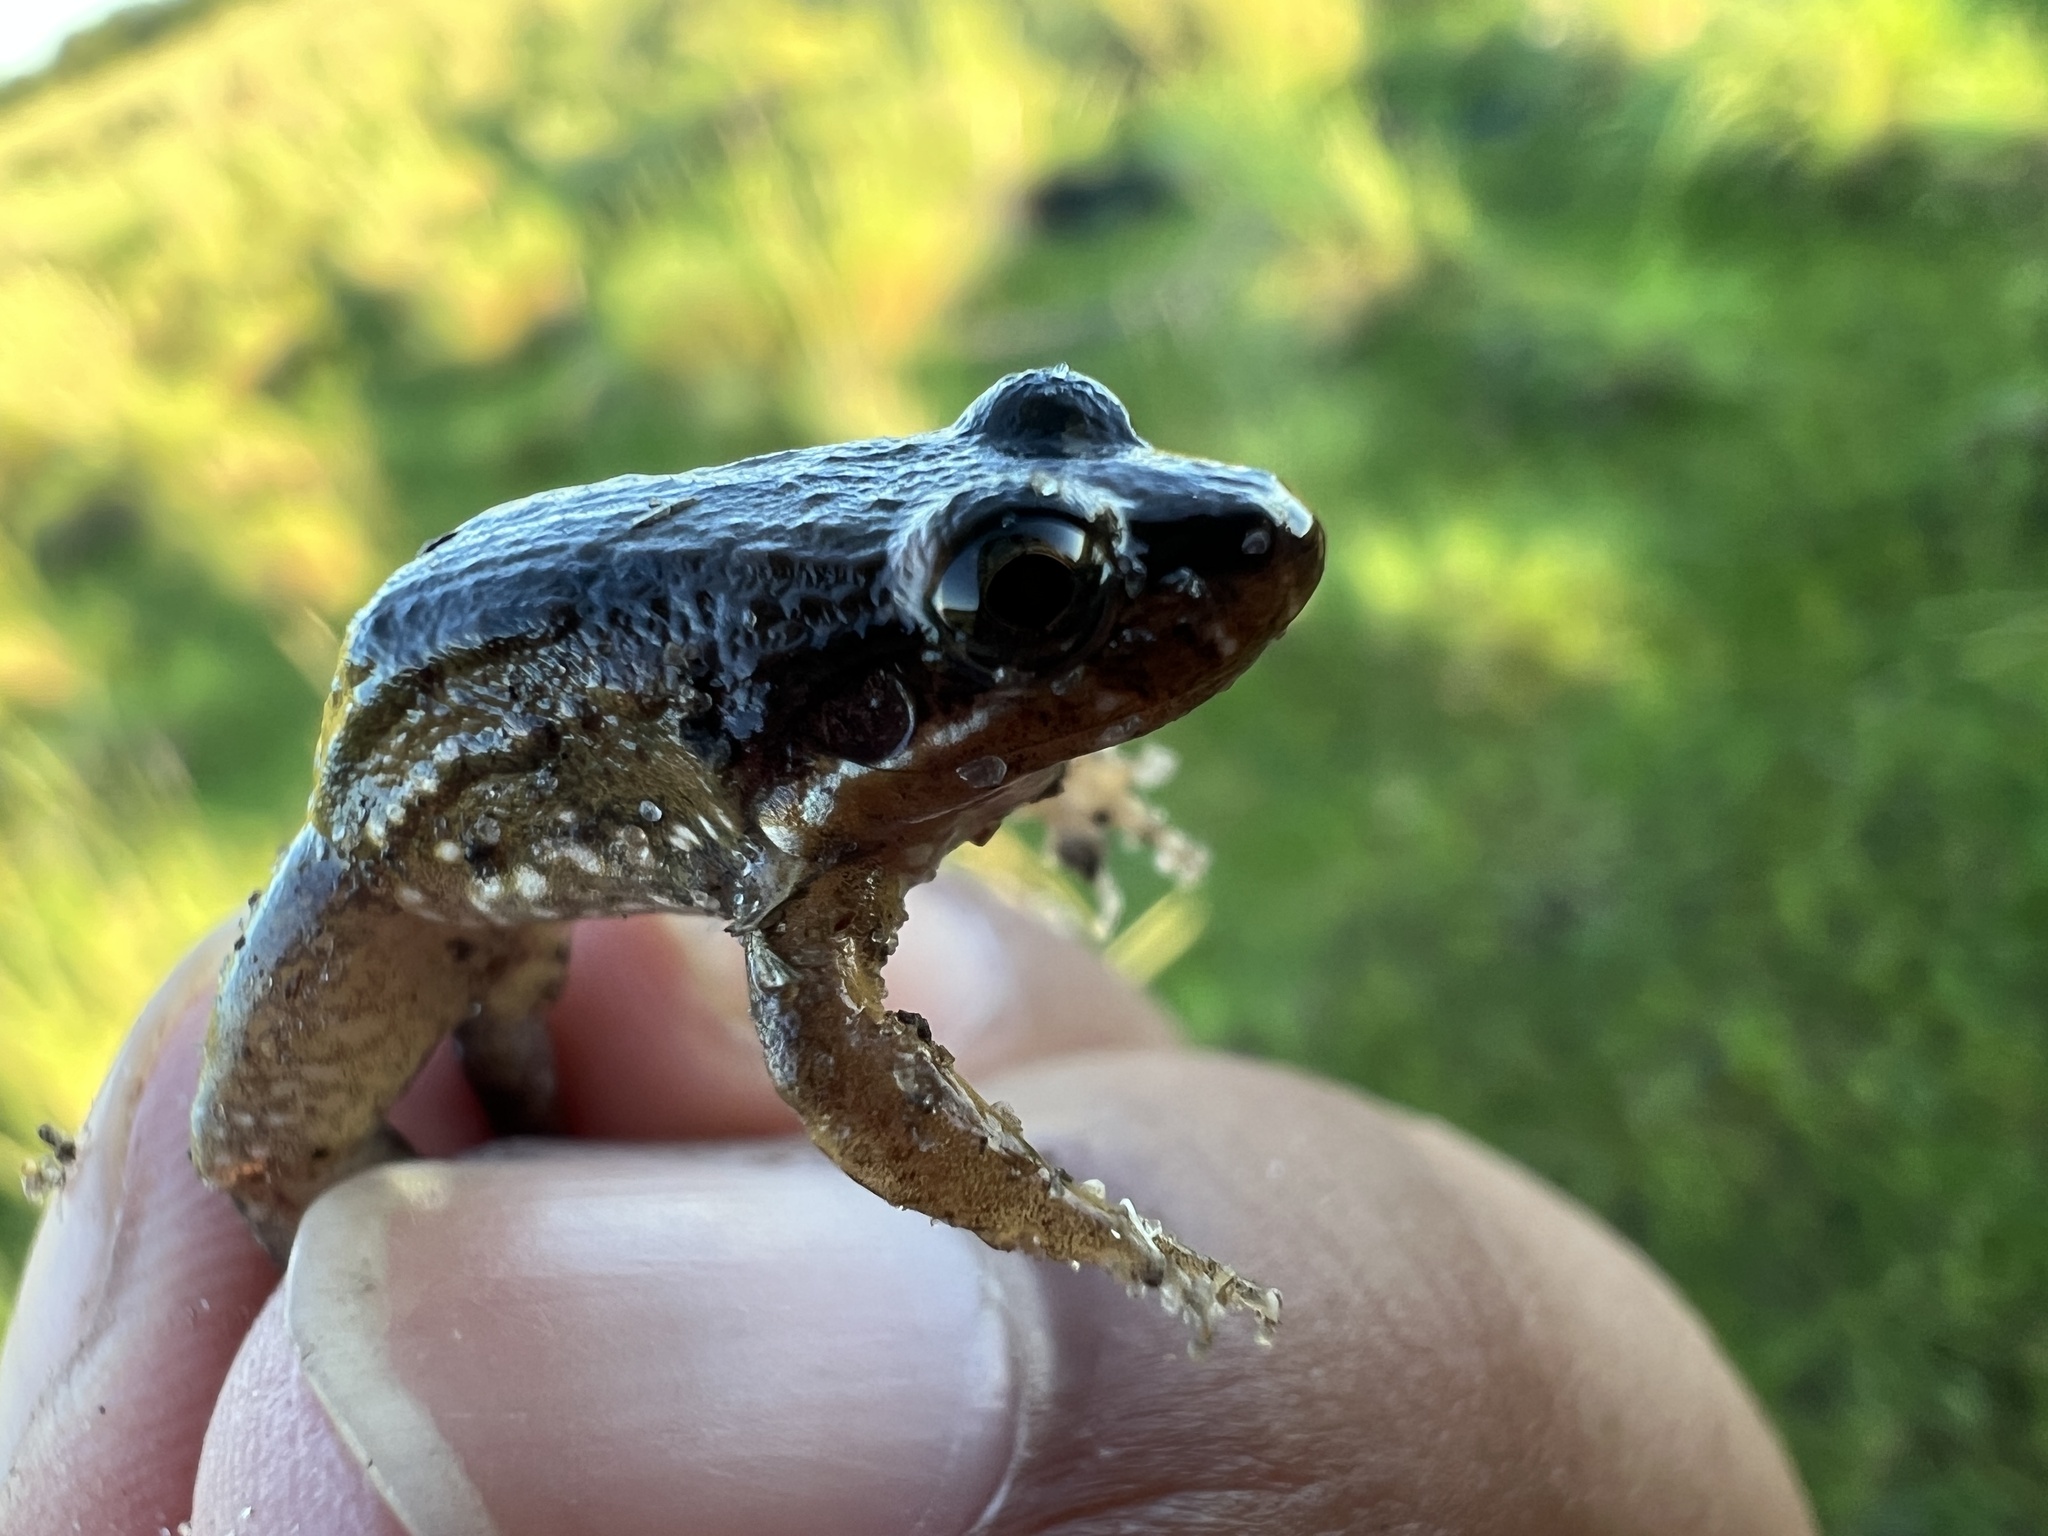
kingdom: Animalia
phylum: Chordata
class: Amphibia
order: Anura
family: Leptodactylidae
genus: Leptodactylus
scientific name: Leptodactylus podicipinus
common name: Pointedbelly frog
